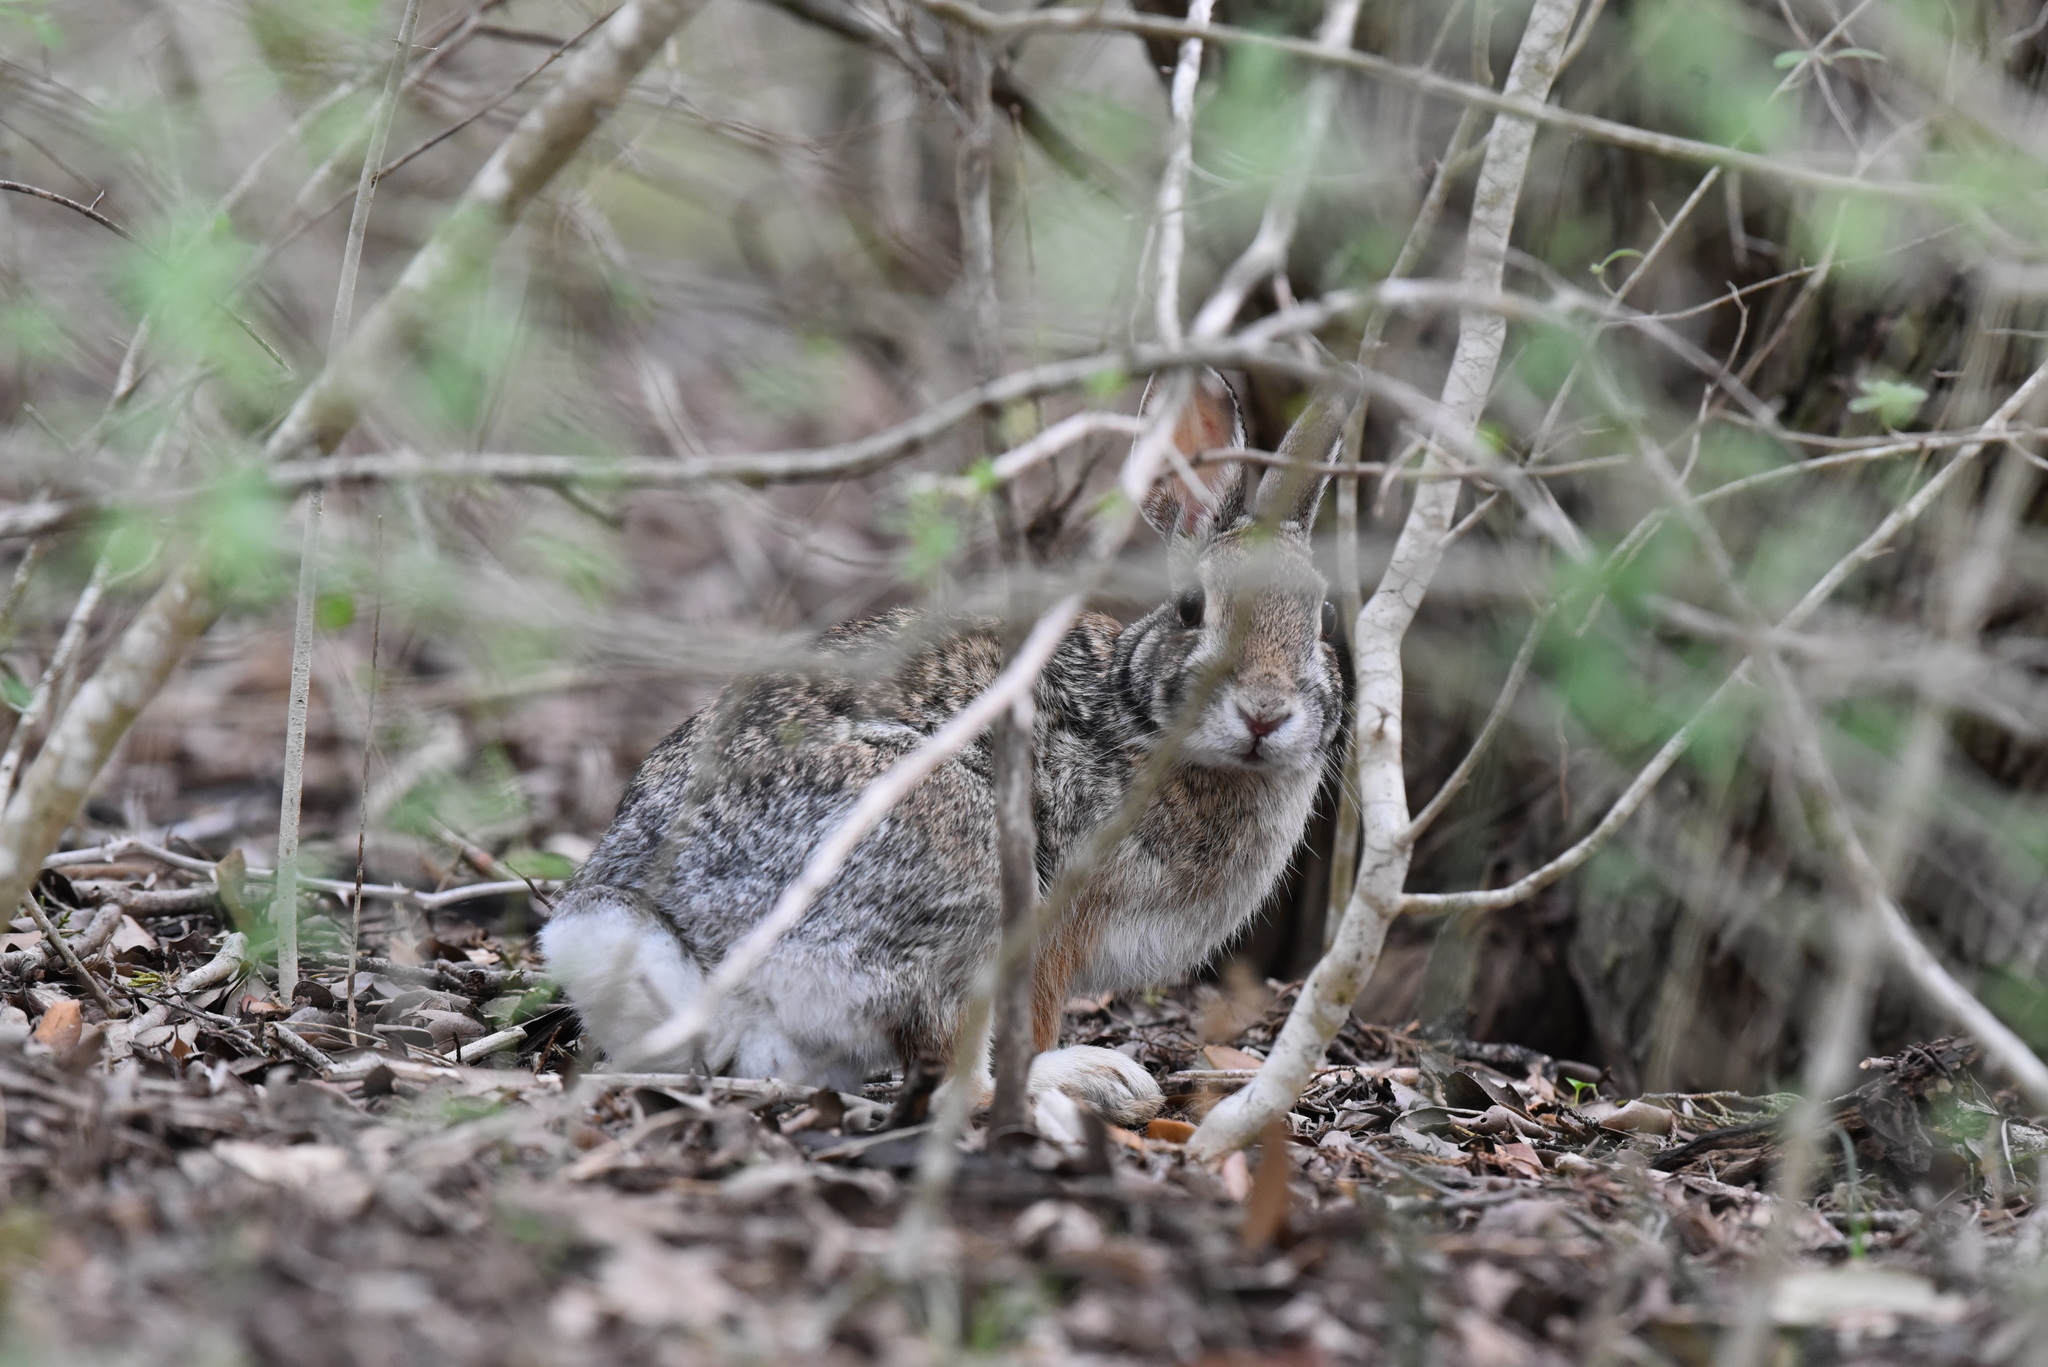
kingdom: Animalia
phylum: Chordata
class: Mammalia
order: Lagomorpha
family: Leporidae
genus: Sylvilagus
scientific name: Sylvilagus floridanus
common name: Eastern cottontail
